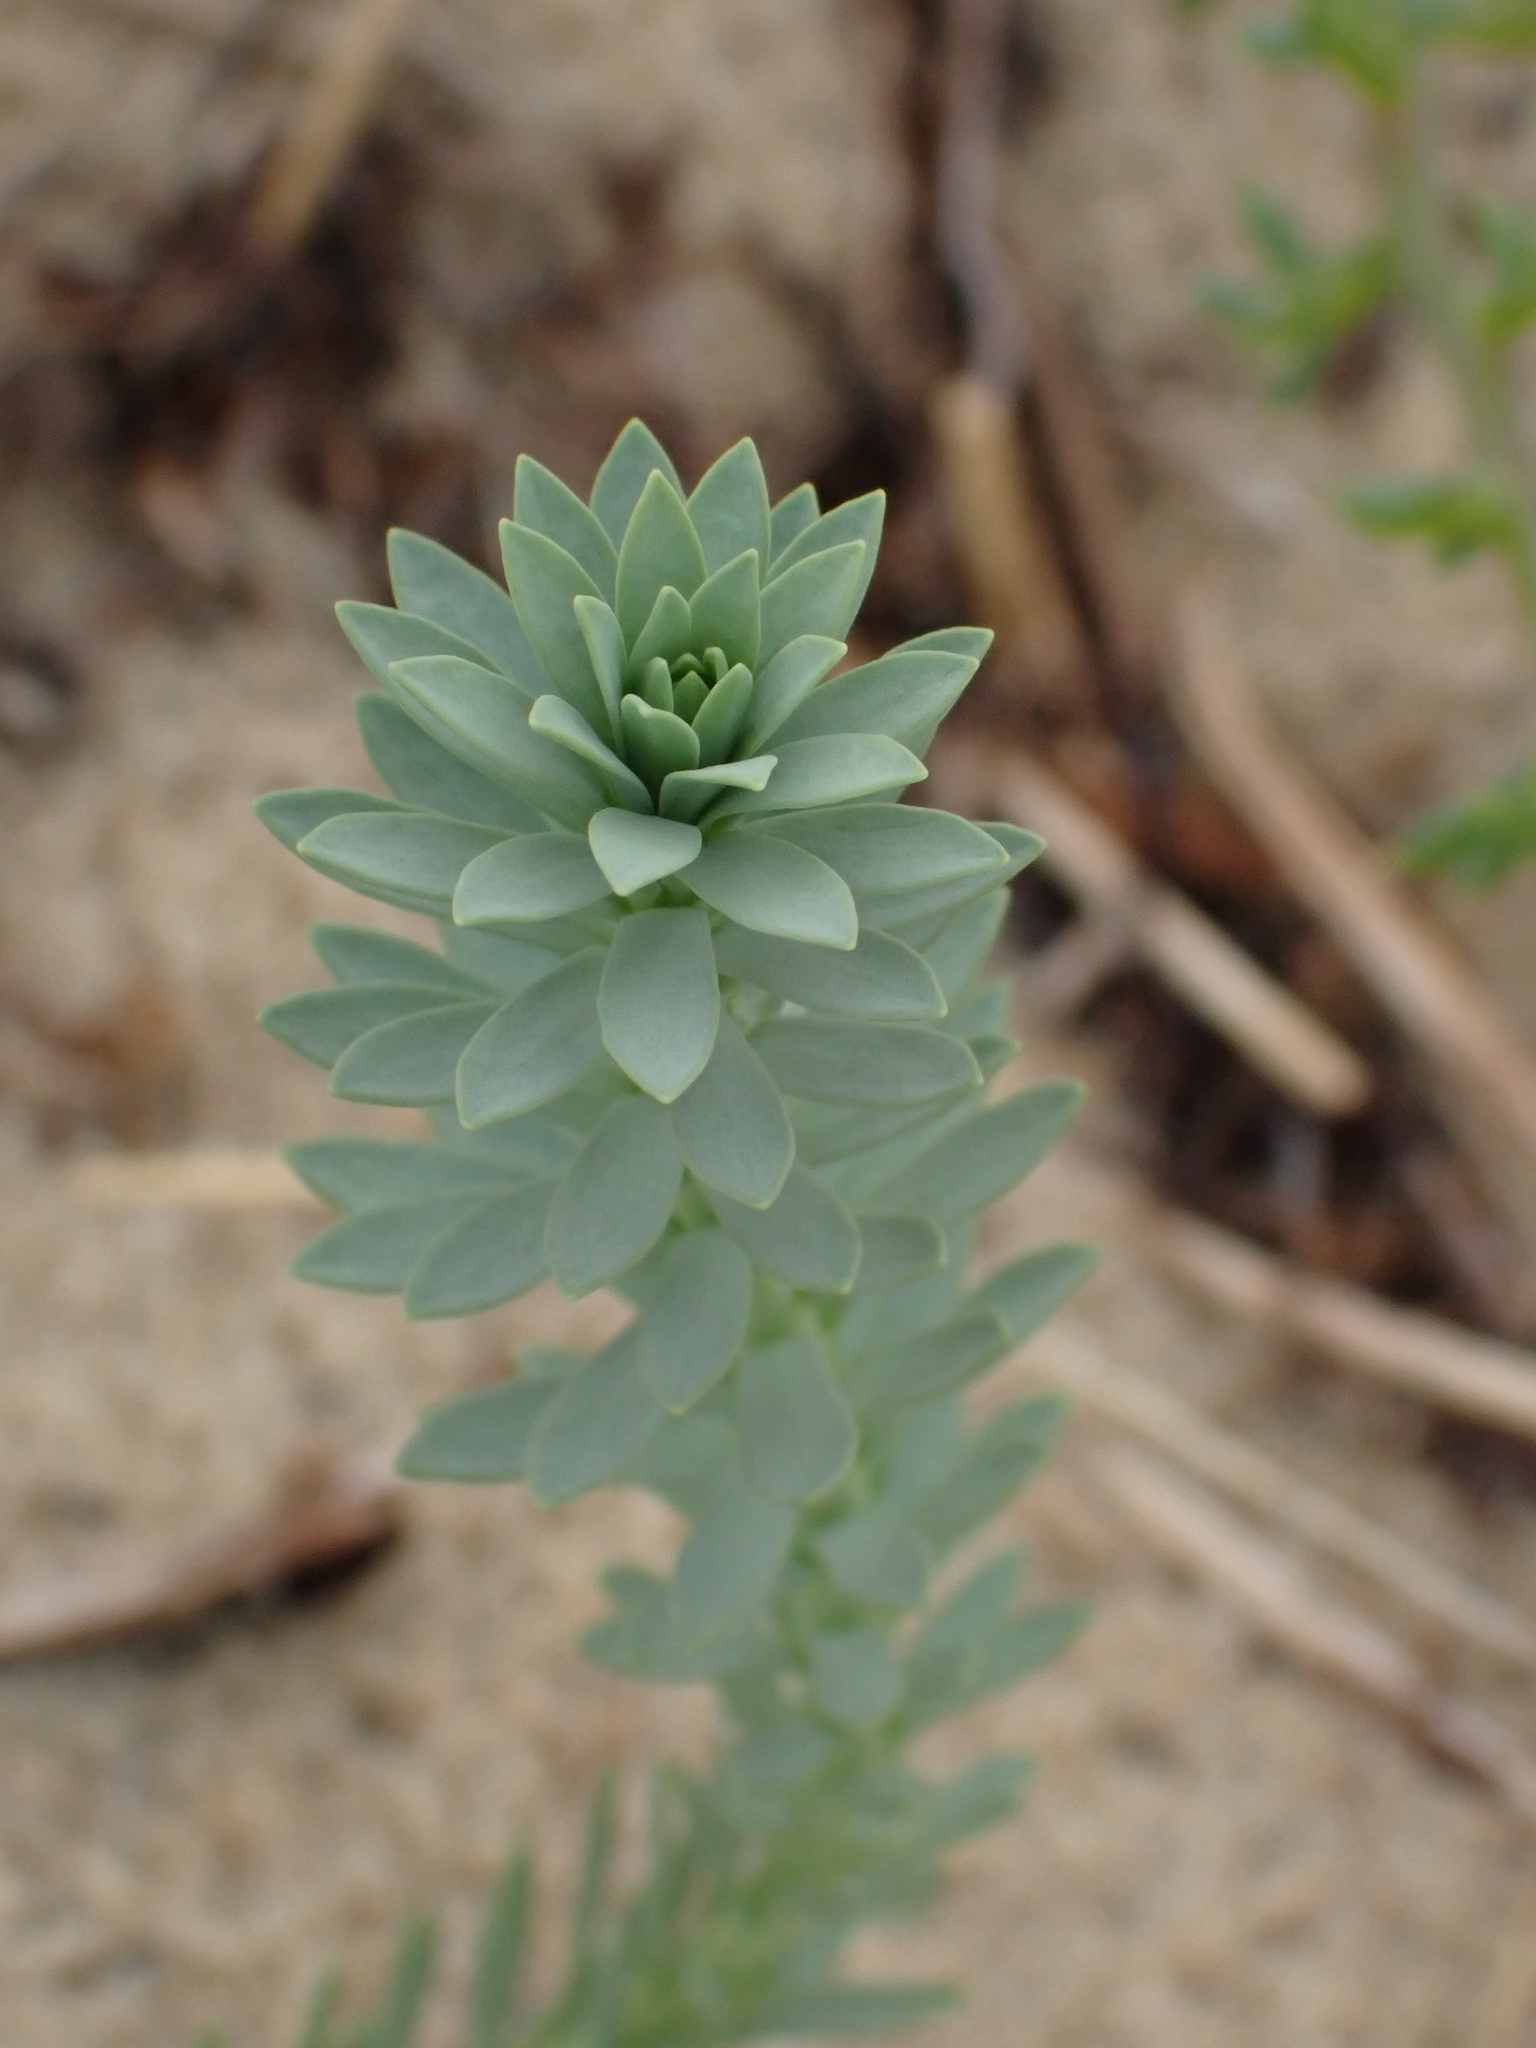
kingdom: Plantae
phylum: Tracheophyta
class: Magnoliopsida
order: Malpighiales
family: Euphorbiaceae
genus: Euphorbia
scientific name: Euphorbia paralias
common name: Sea spurge
